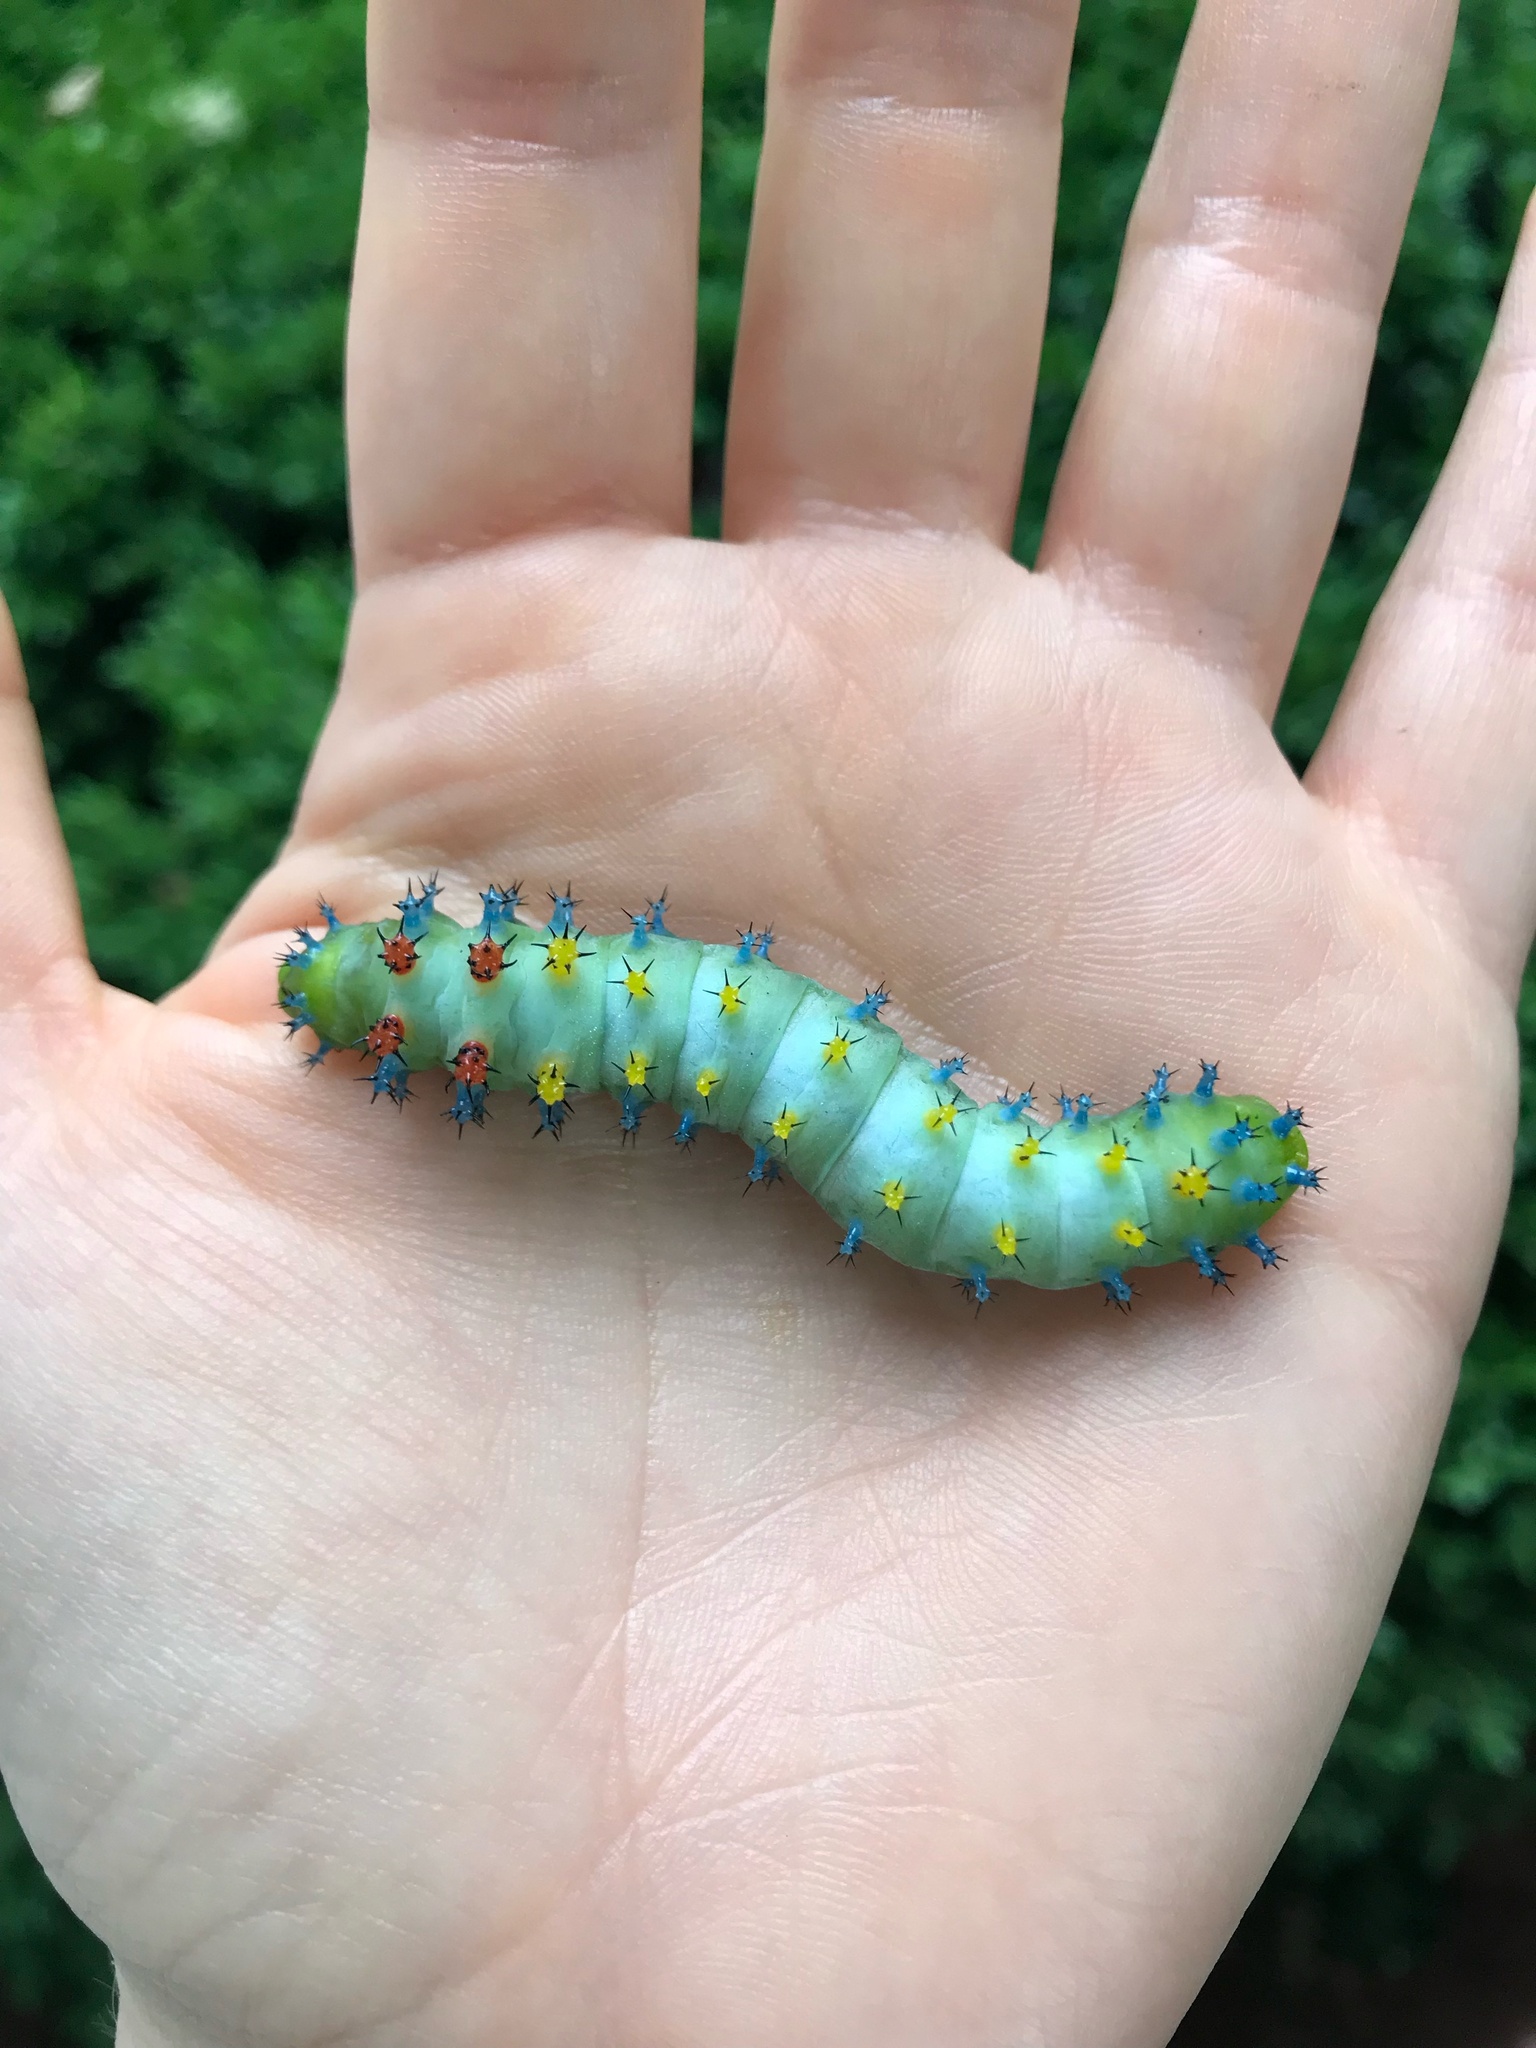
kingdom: Animalia
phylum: Arthropoda
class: Insecta
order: Lepidoptera
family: Saturniidae
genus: Hyalophora
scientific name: Hyalophora cecropia
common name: Cecropia silkmoth
